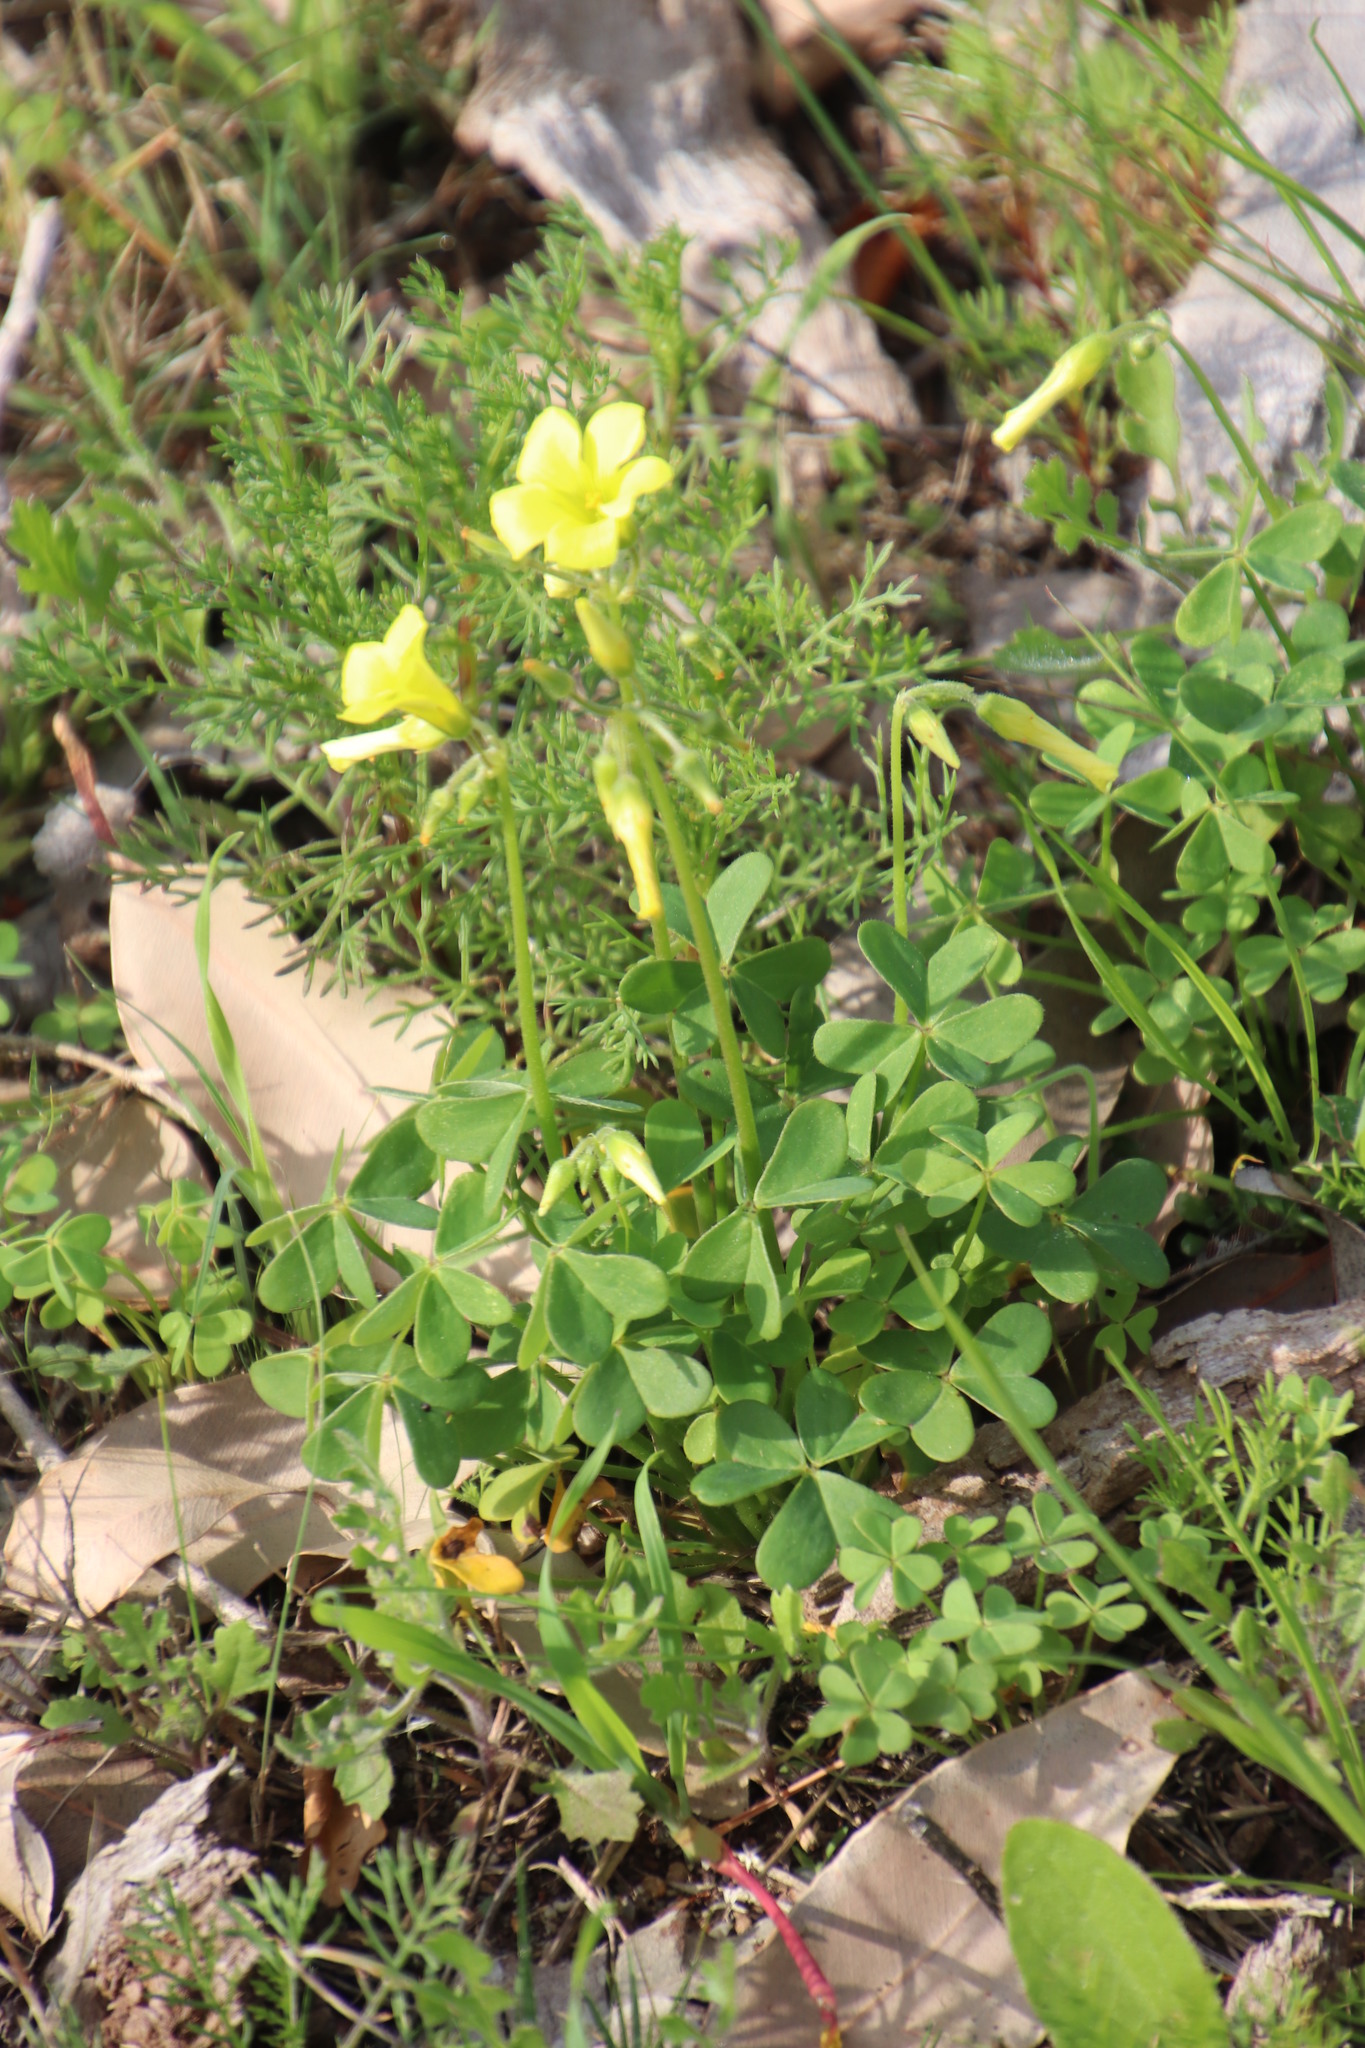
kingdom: Plantae
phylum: Tracheophyta
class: Magnoliopsida
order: Oxalidales
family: Oxalidaceae
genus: Oxalis
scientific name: Oxalis pes-caprae
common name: Bermuda-buttercup
